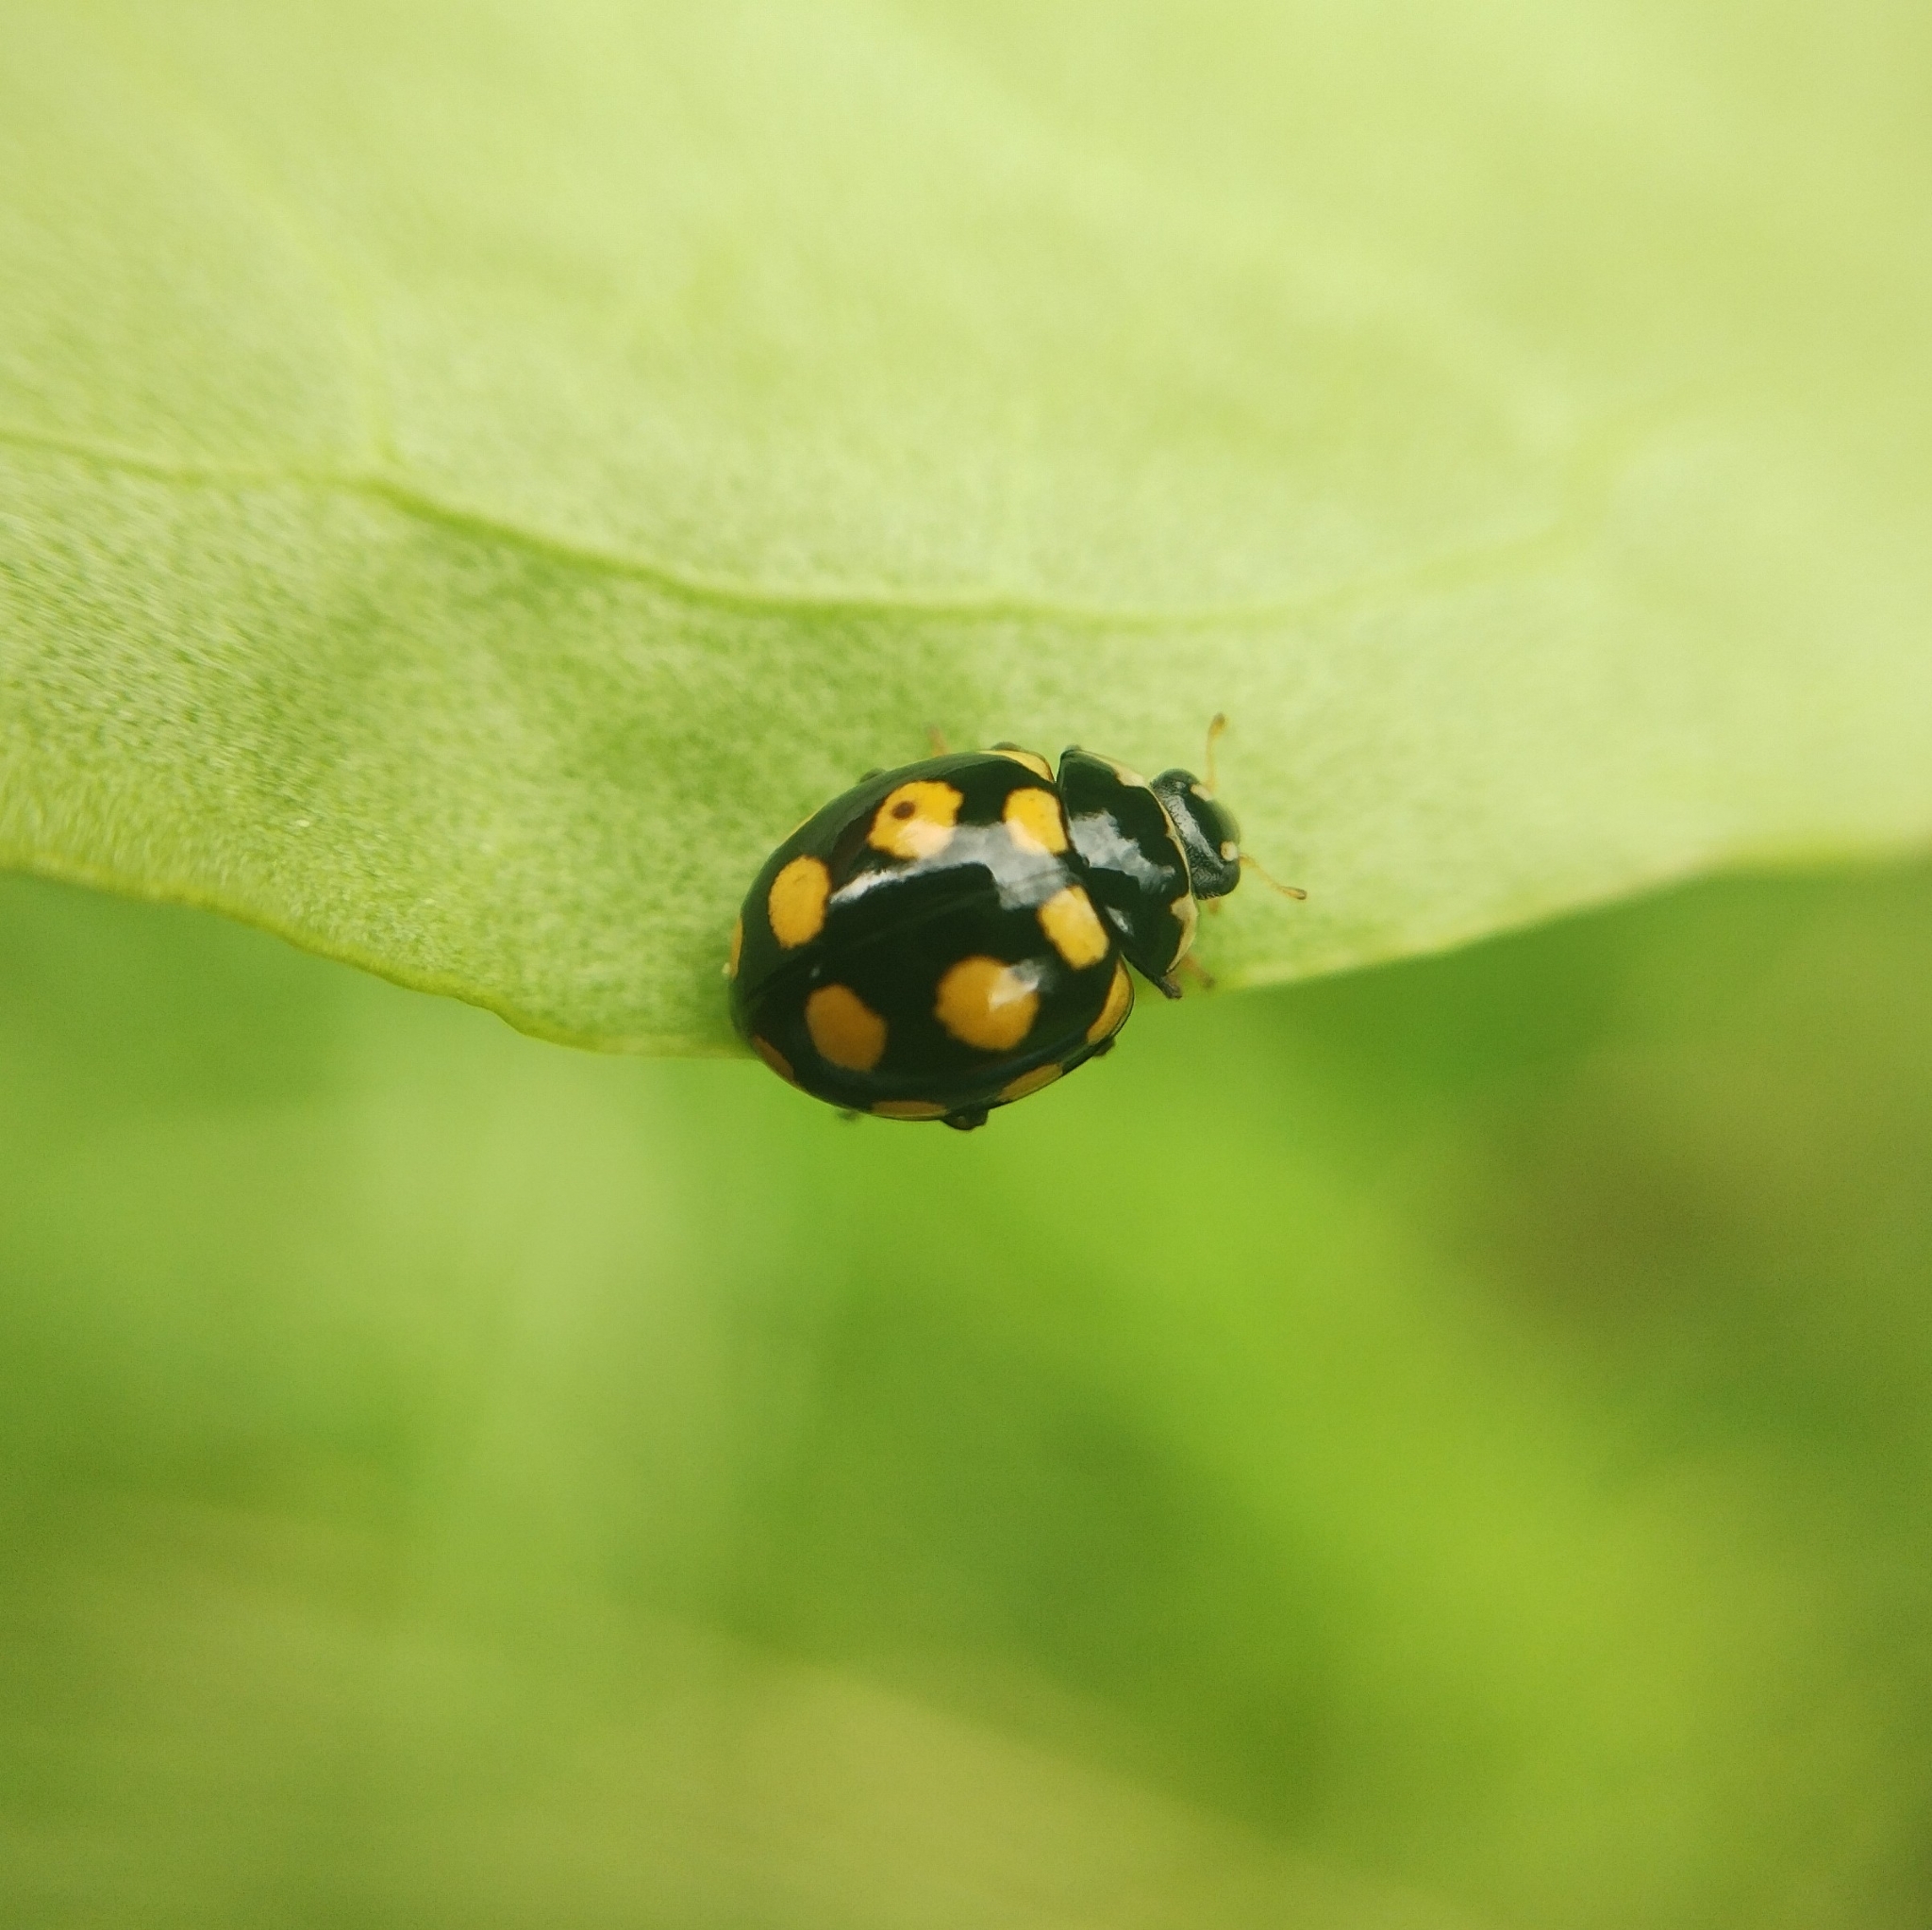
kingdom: Animalia
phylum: Arthropoda
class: Insecta
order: Coleoptera
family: Coccinellidae
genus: Coccinula
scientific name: Coccinula quatuordecimpustulata
